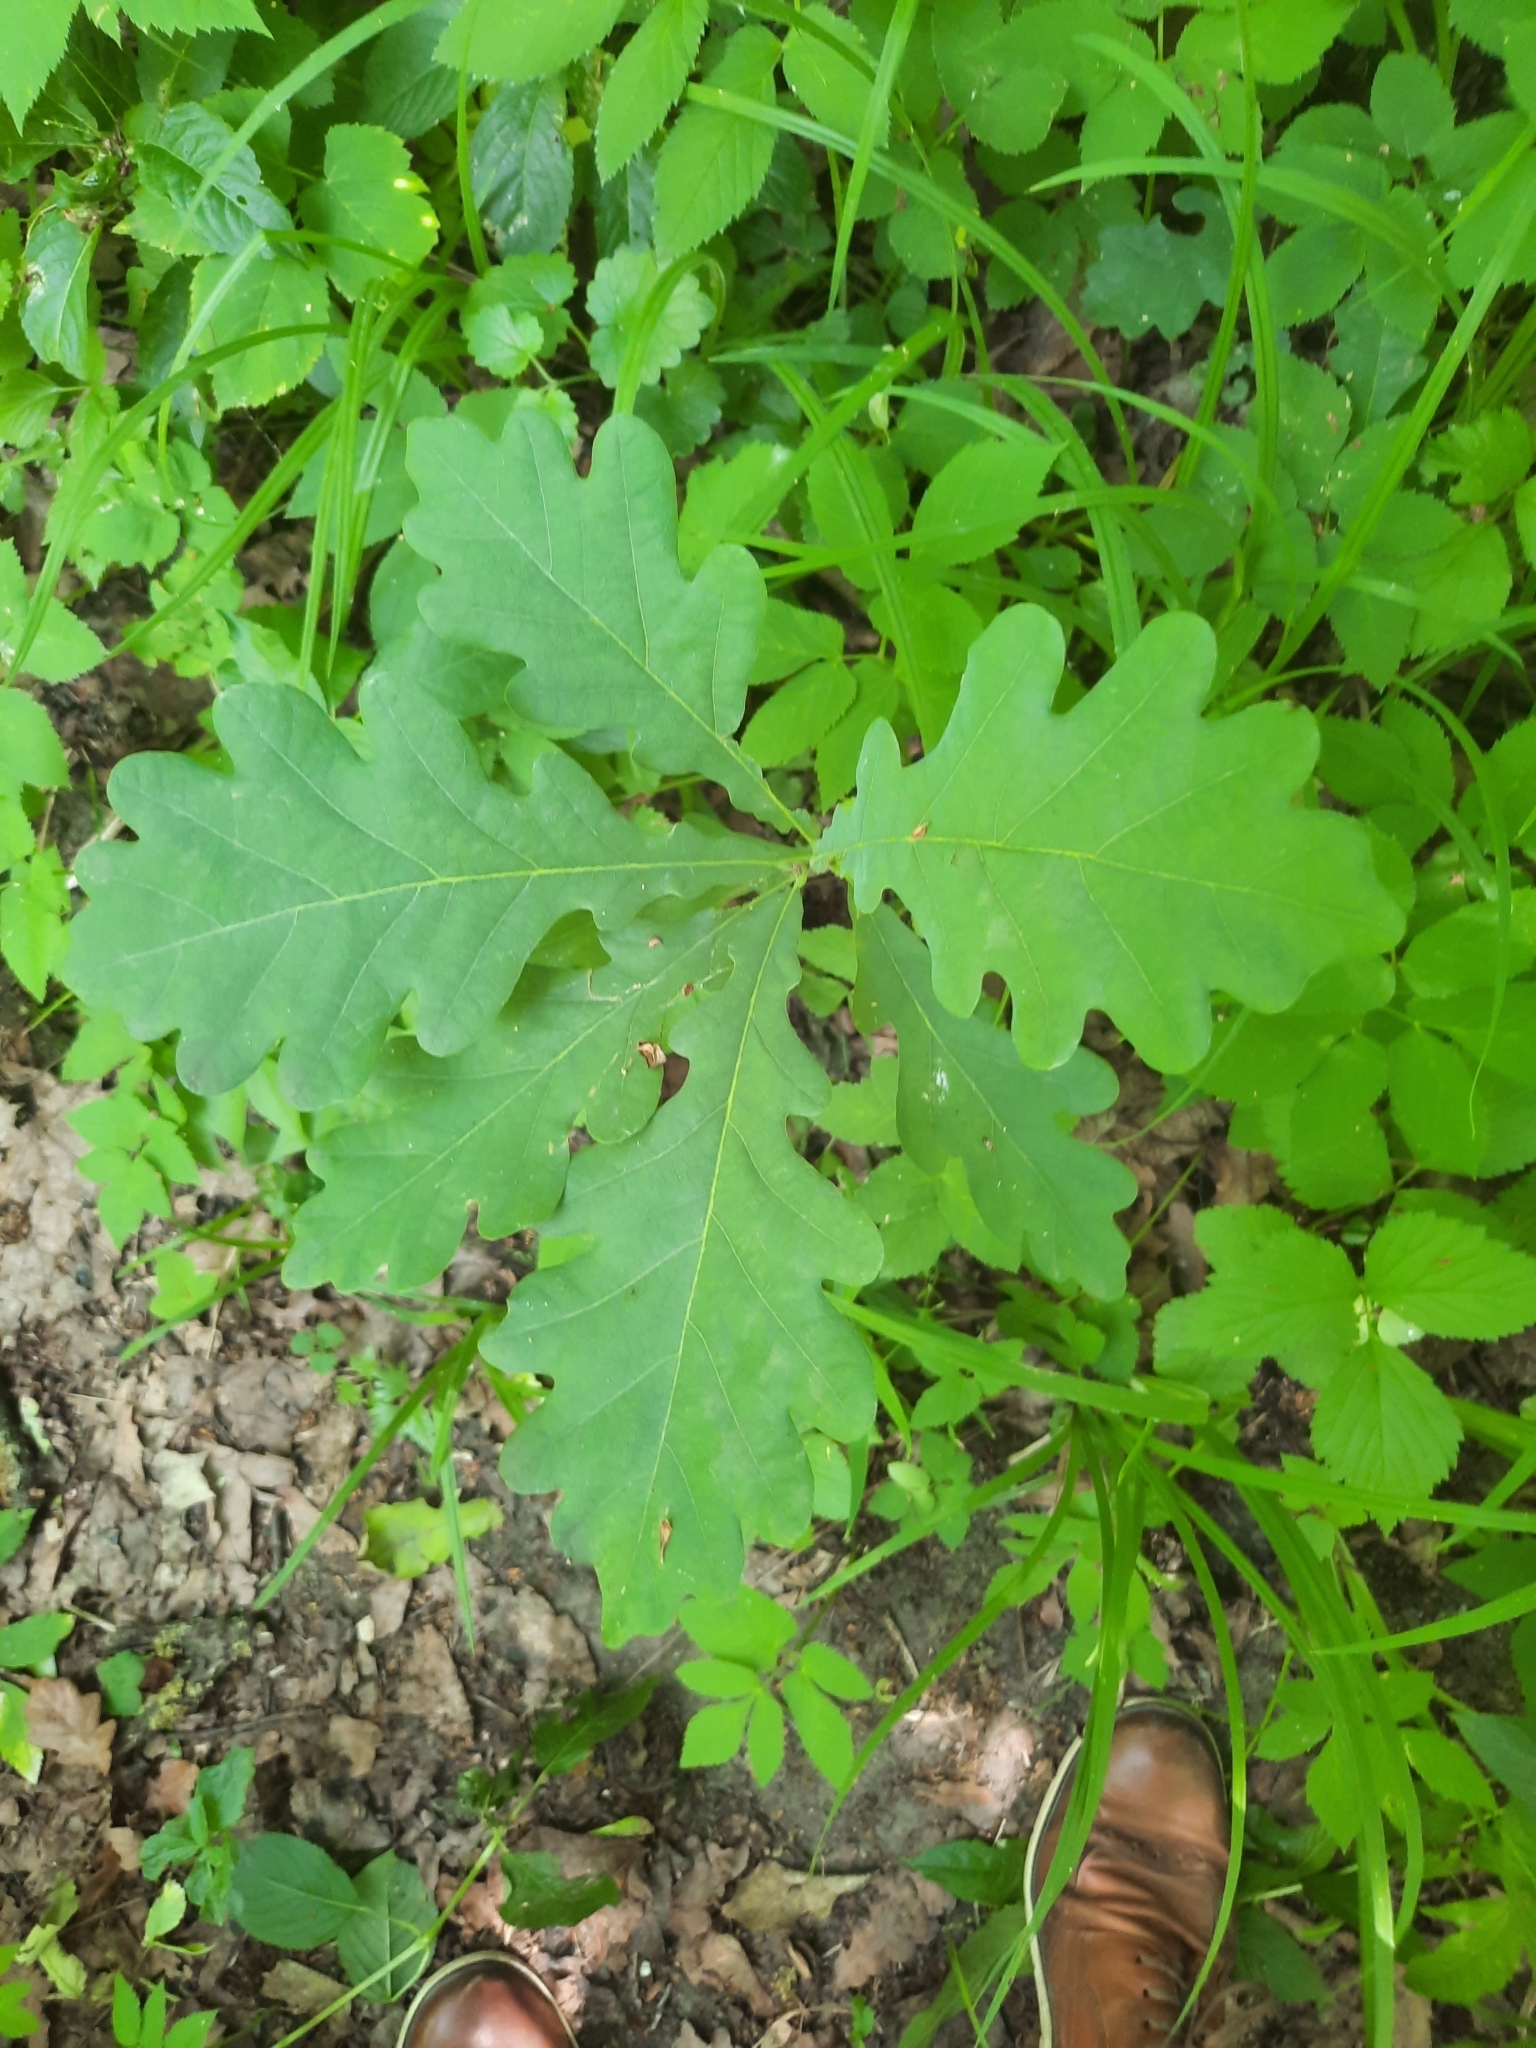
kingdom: Plantae
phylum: Tracheophyta
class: Magnoliopsida
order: Fagales
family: Fagaceae
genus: Quercus
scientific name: Quercus robur
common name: Pedunculate oak
